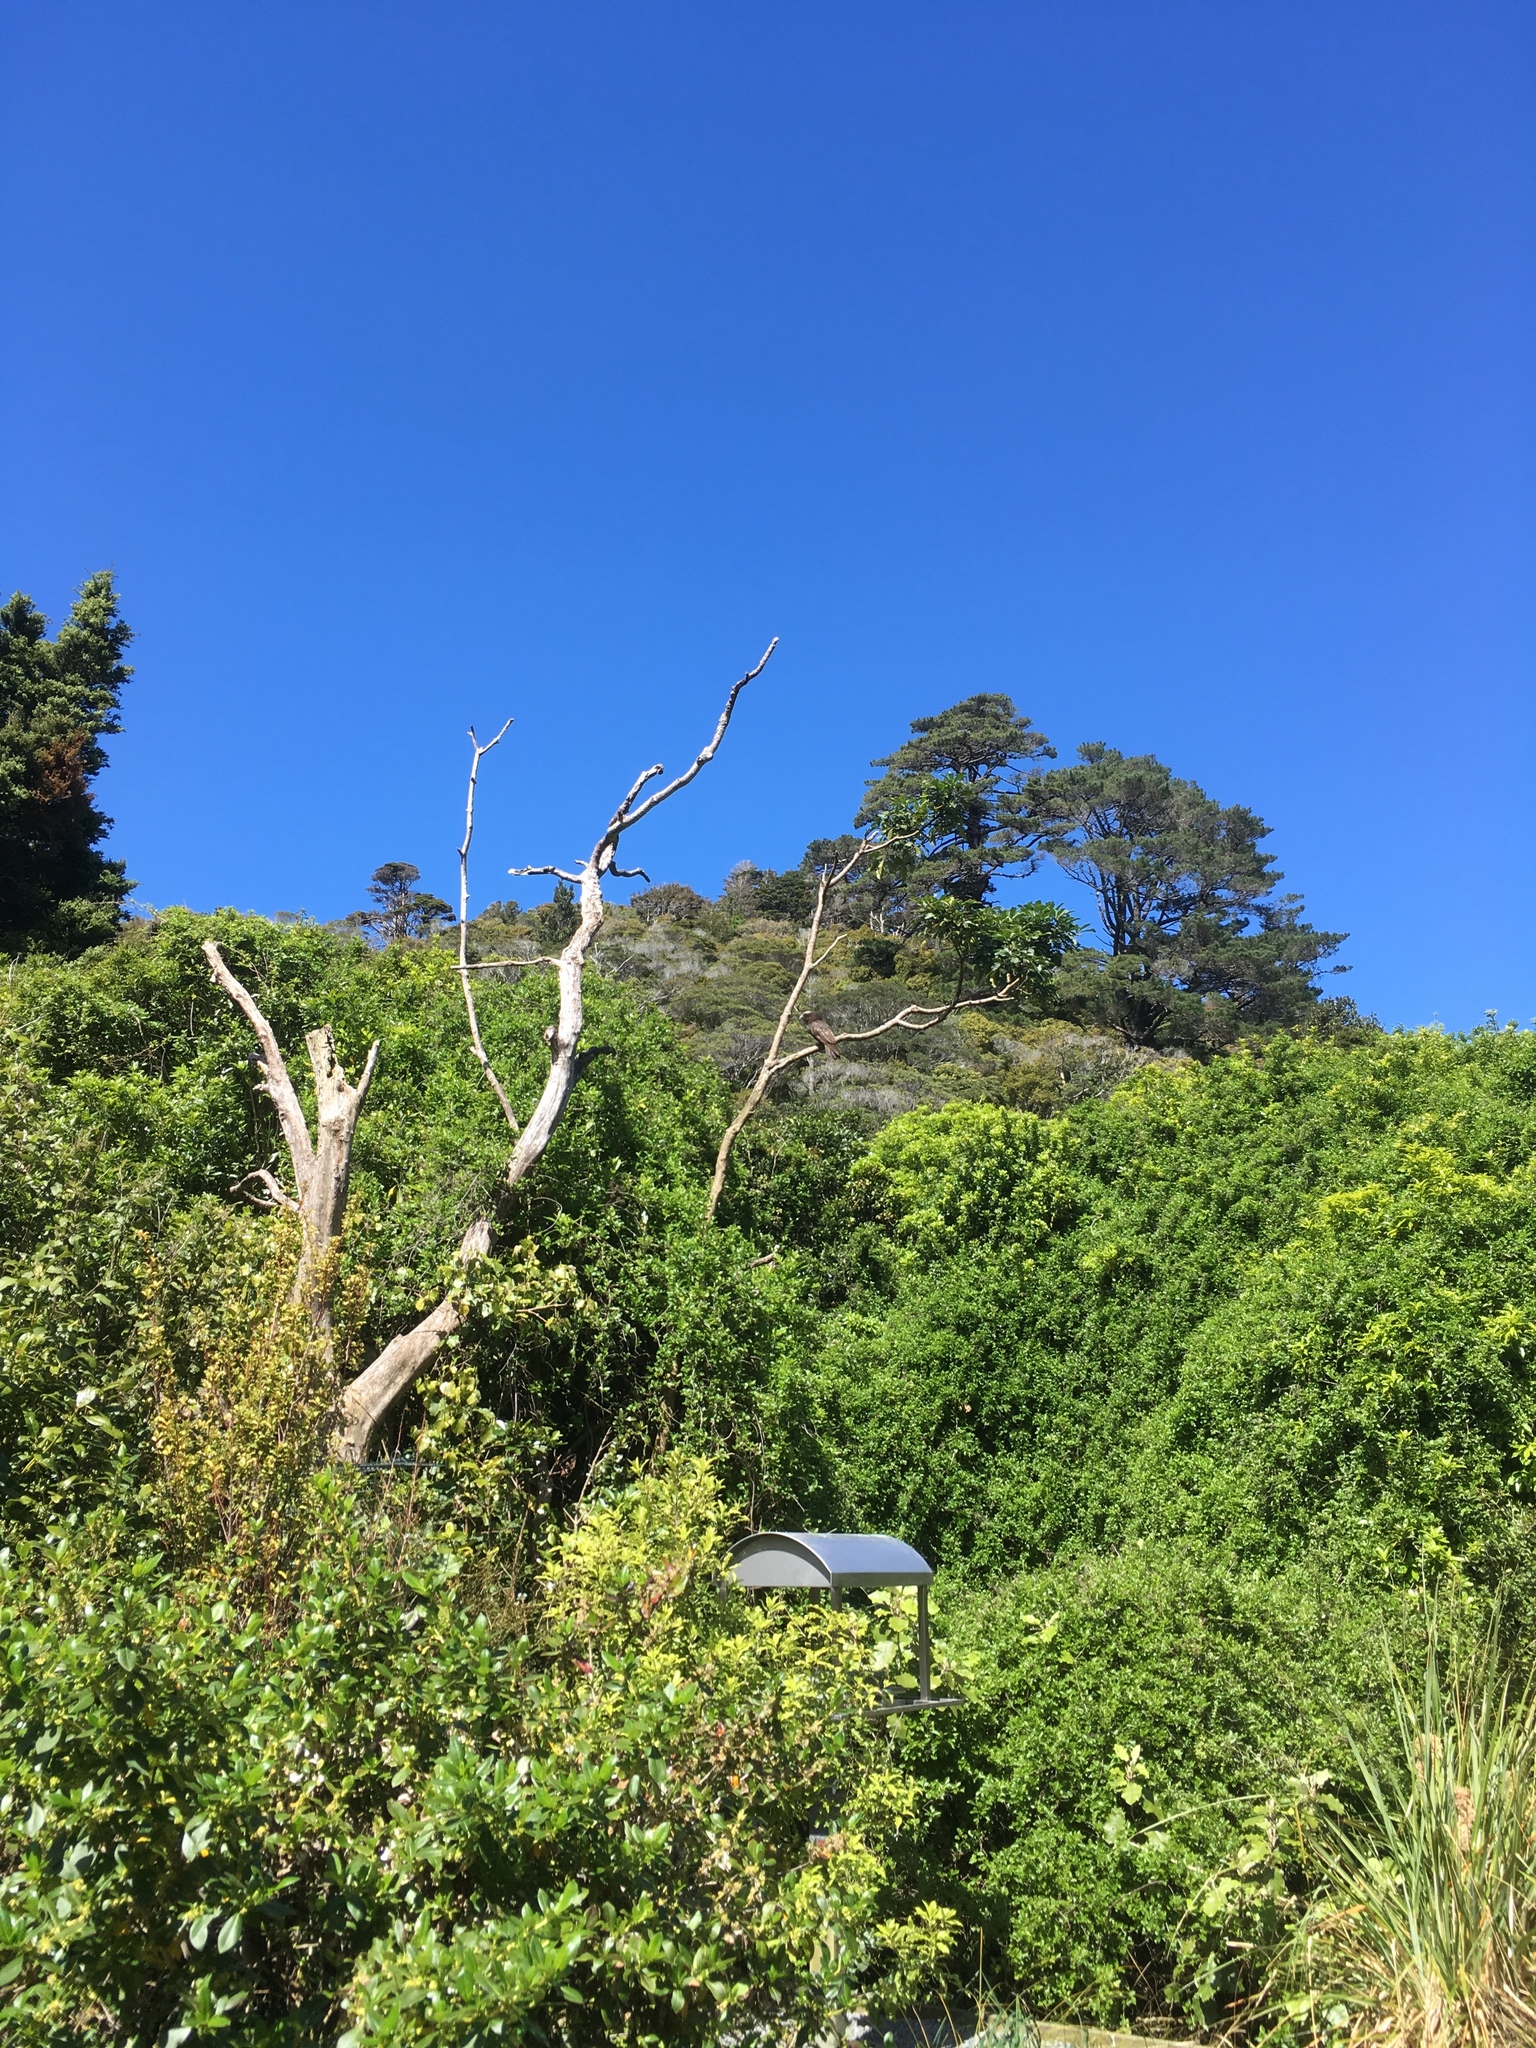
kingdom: Animalia
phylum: Chordata
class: Aves
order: Psittaciformes
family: Psittacidae
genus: Nestor
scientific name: Nestor meridionalis
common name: New zealand kaka
